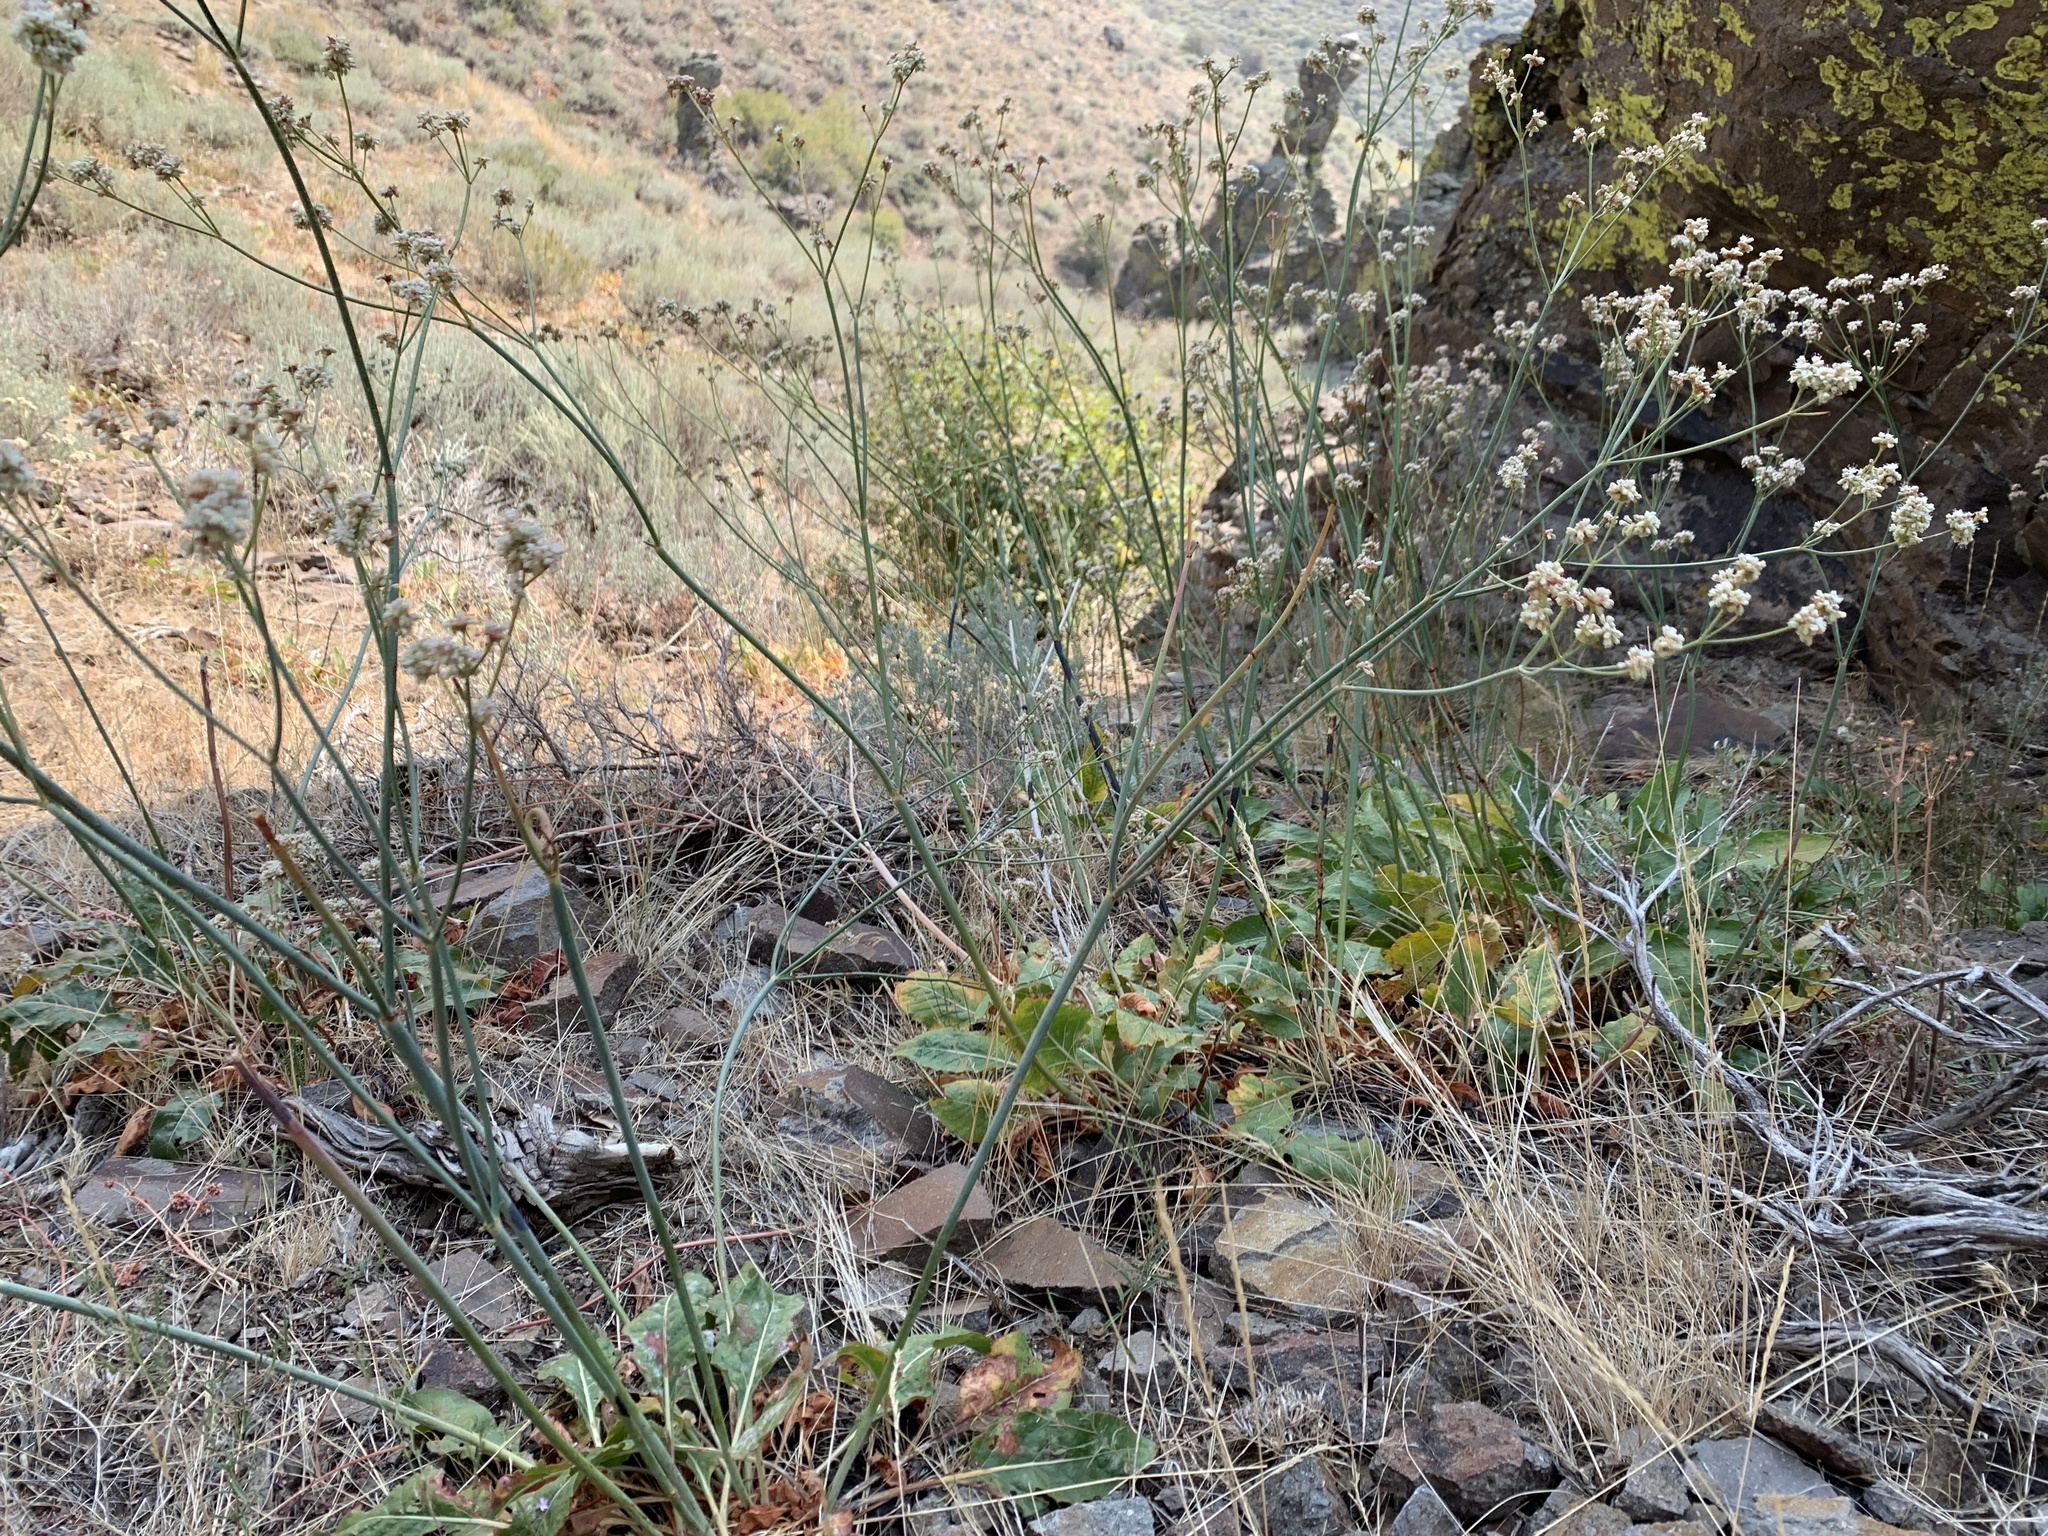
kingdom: Plantae
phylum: Tracheophyta
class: Magnoliopsida
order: Caryophyllales
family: Polygonaceae
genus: Eriogonum
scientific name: Eriogonum elatum
